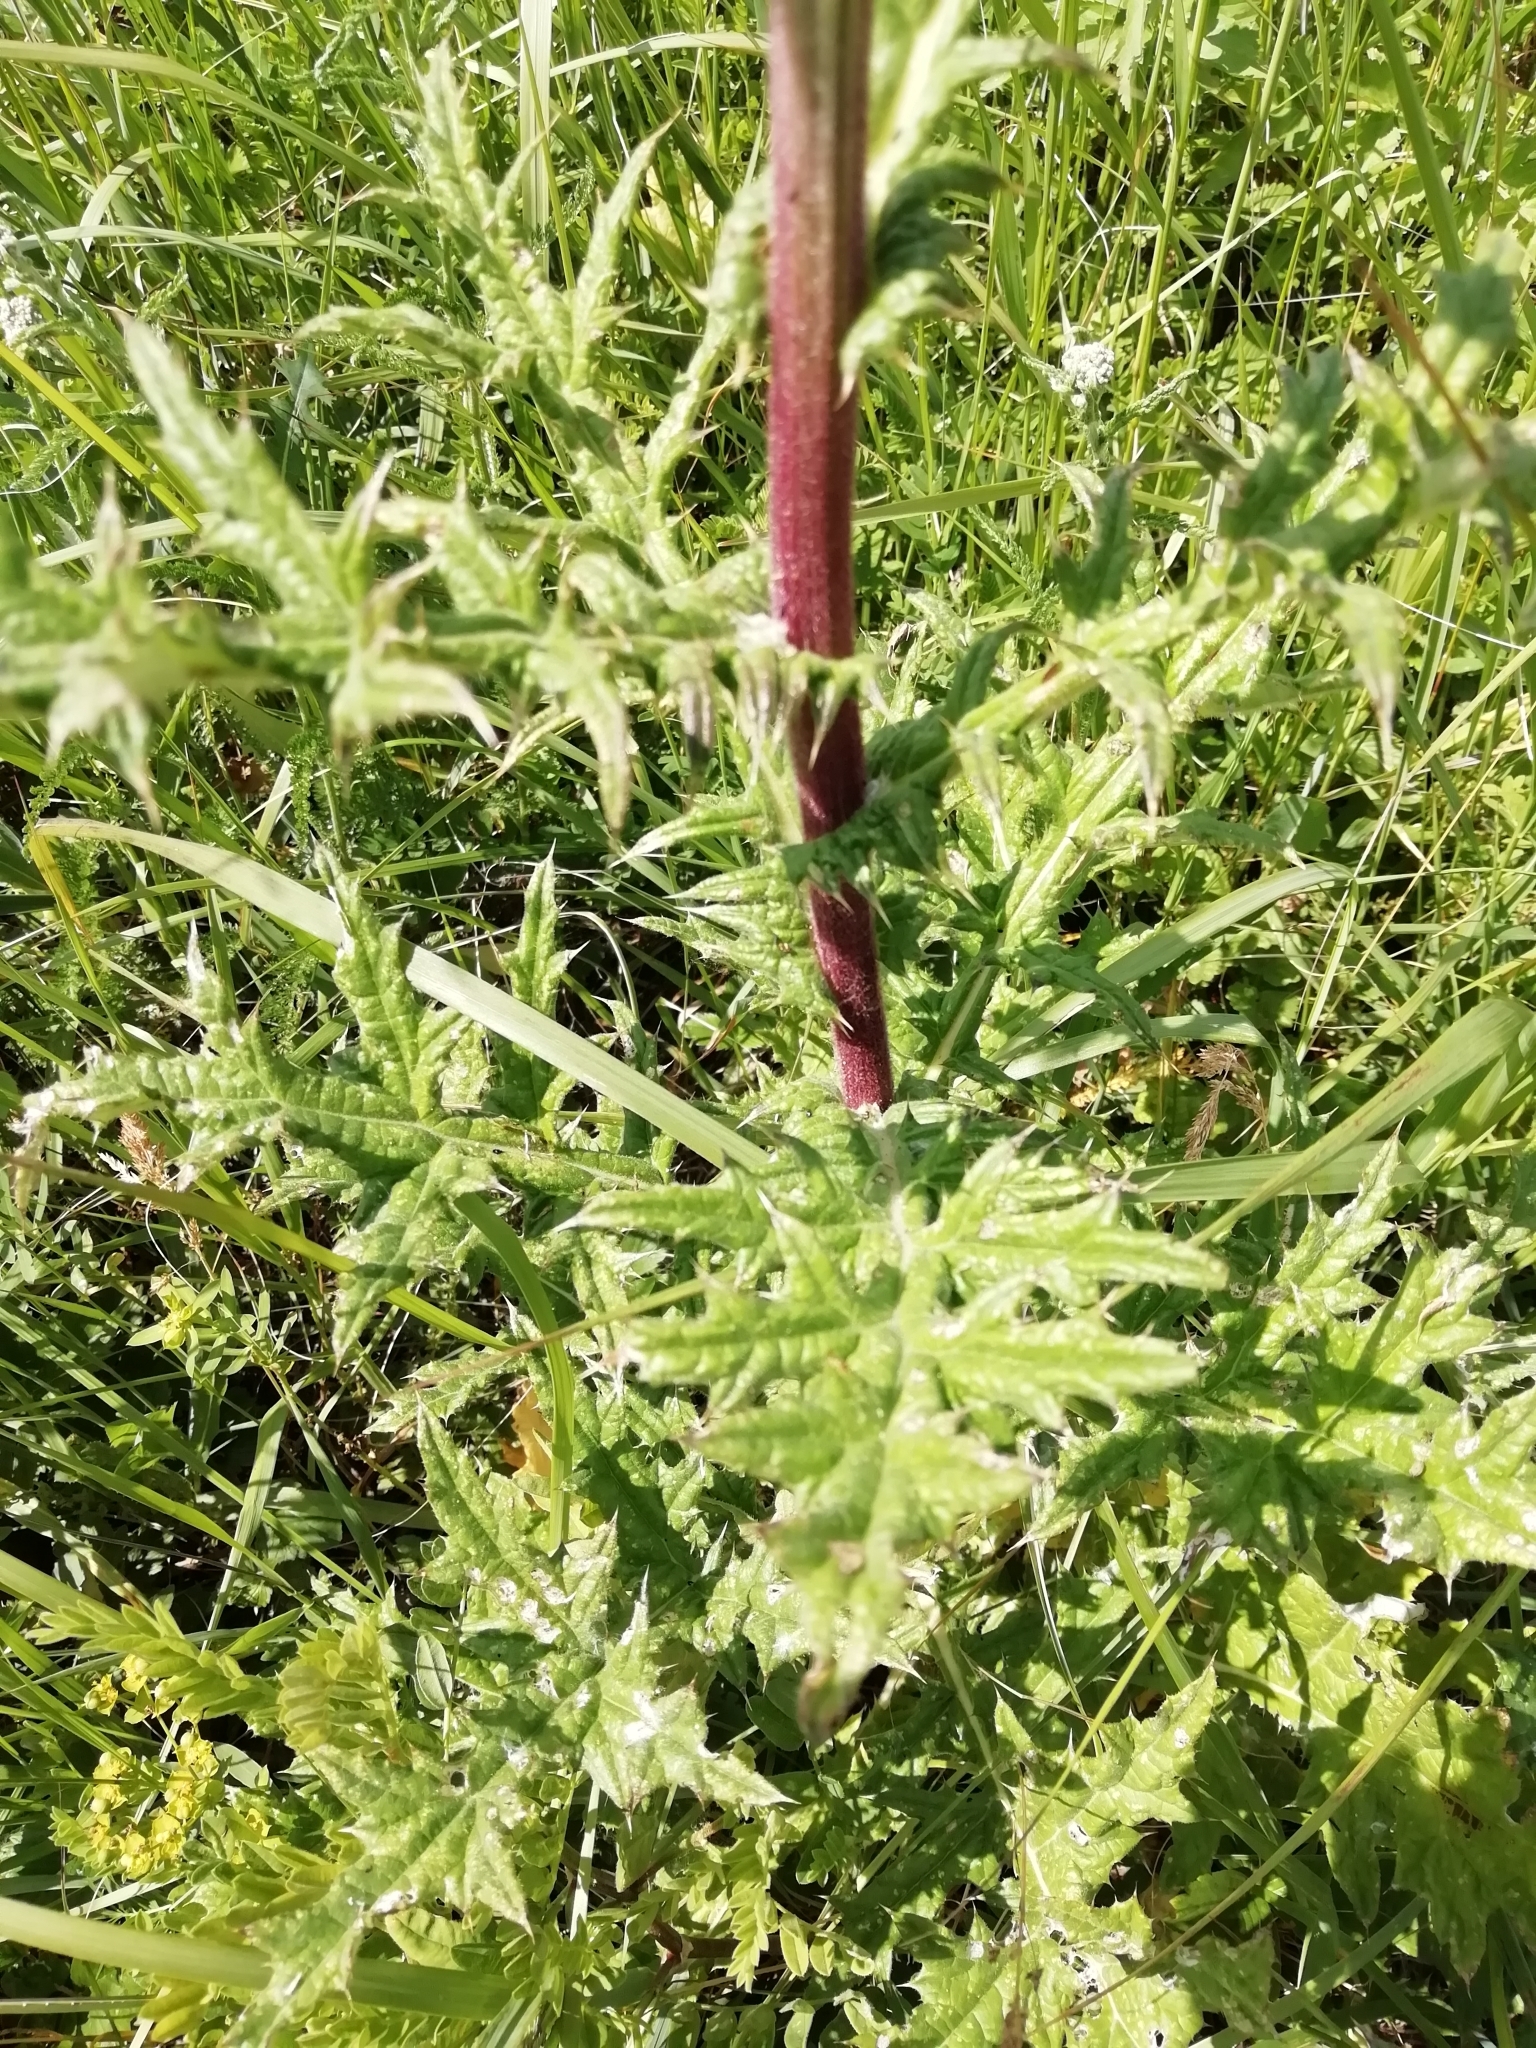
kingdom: Plantae
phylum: Tracheophyta
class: Magnoliopsida
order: Asterales
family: Asteraceae
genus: Echinops
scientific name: Echinops sphaerocephalus
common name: Glandular globe-thistle
